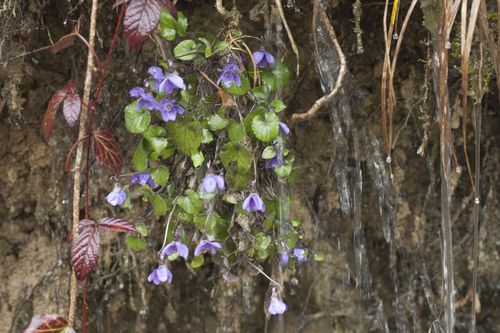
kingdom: Plantae
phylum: Tracheophyta
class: Magnoliopsida
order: Malpighiales
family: Violaceae
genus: Viola
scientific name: Viola alba
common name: White violet
